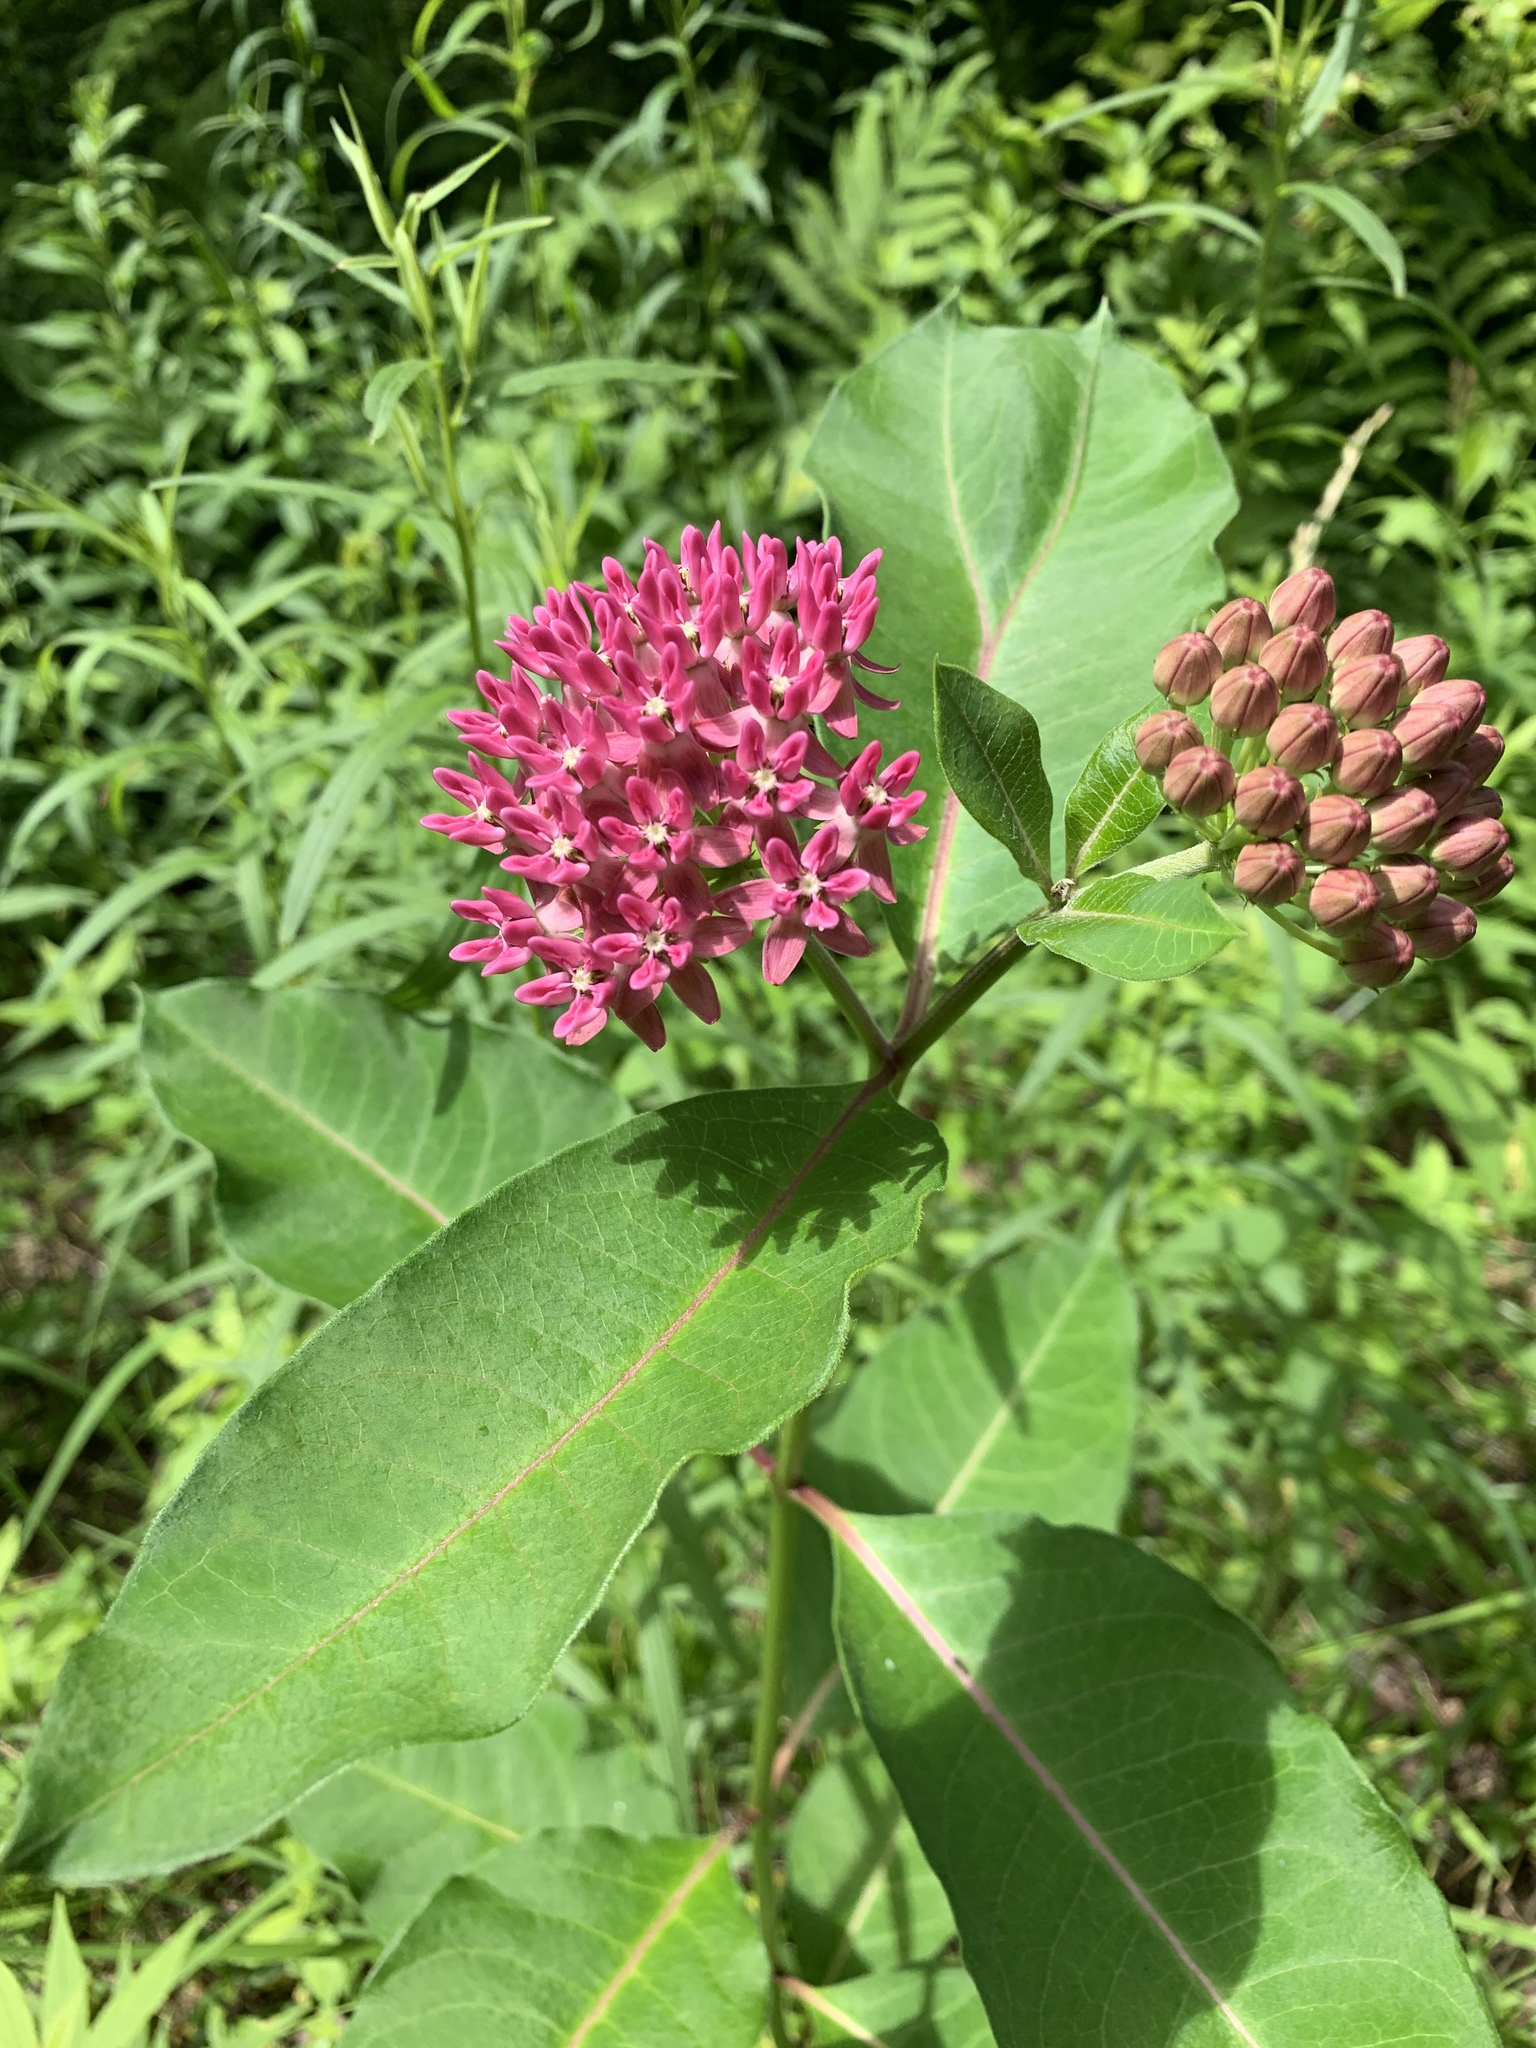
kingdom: Plantae
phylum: Tracheophyta
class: Magnoliopsida
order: Gentianales
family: Apocynaceae
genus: Asclepias
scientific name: Asclepias purpurascens
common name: Purple milkweed
